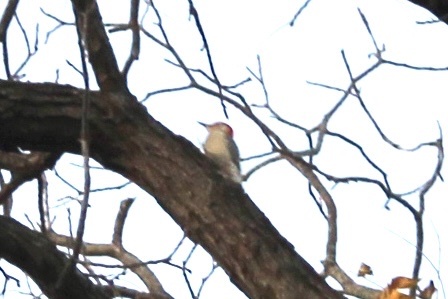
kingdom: Animalia
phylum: Chordata
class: Aves
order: Piciformes
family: Picidae
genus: Melanerpes
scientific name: Melanerpes carolinus
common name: Red-bellied woodpecker
